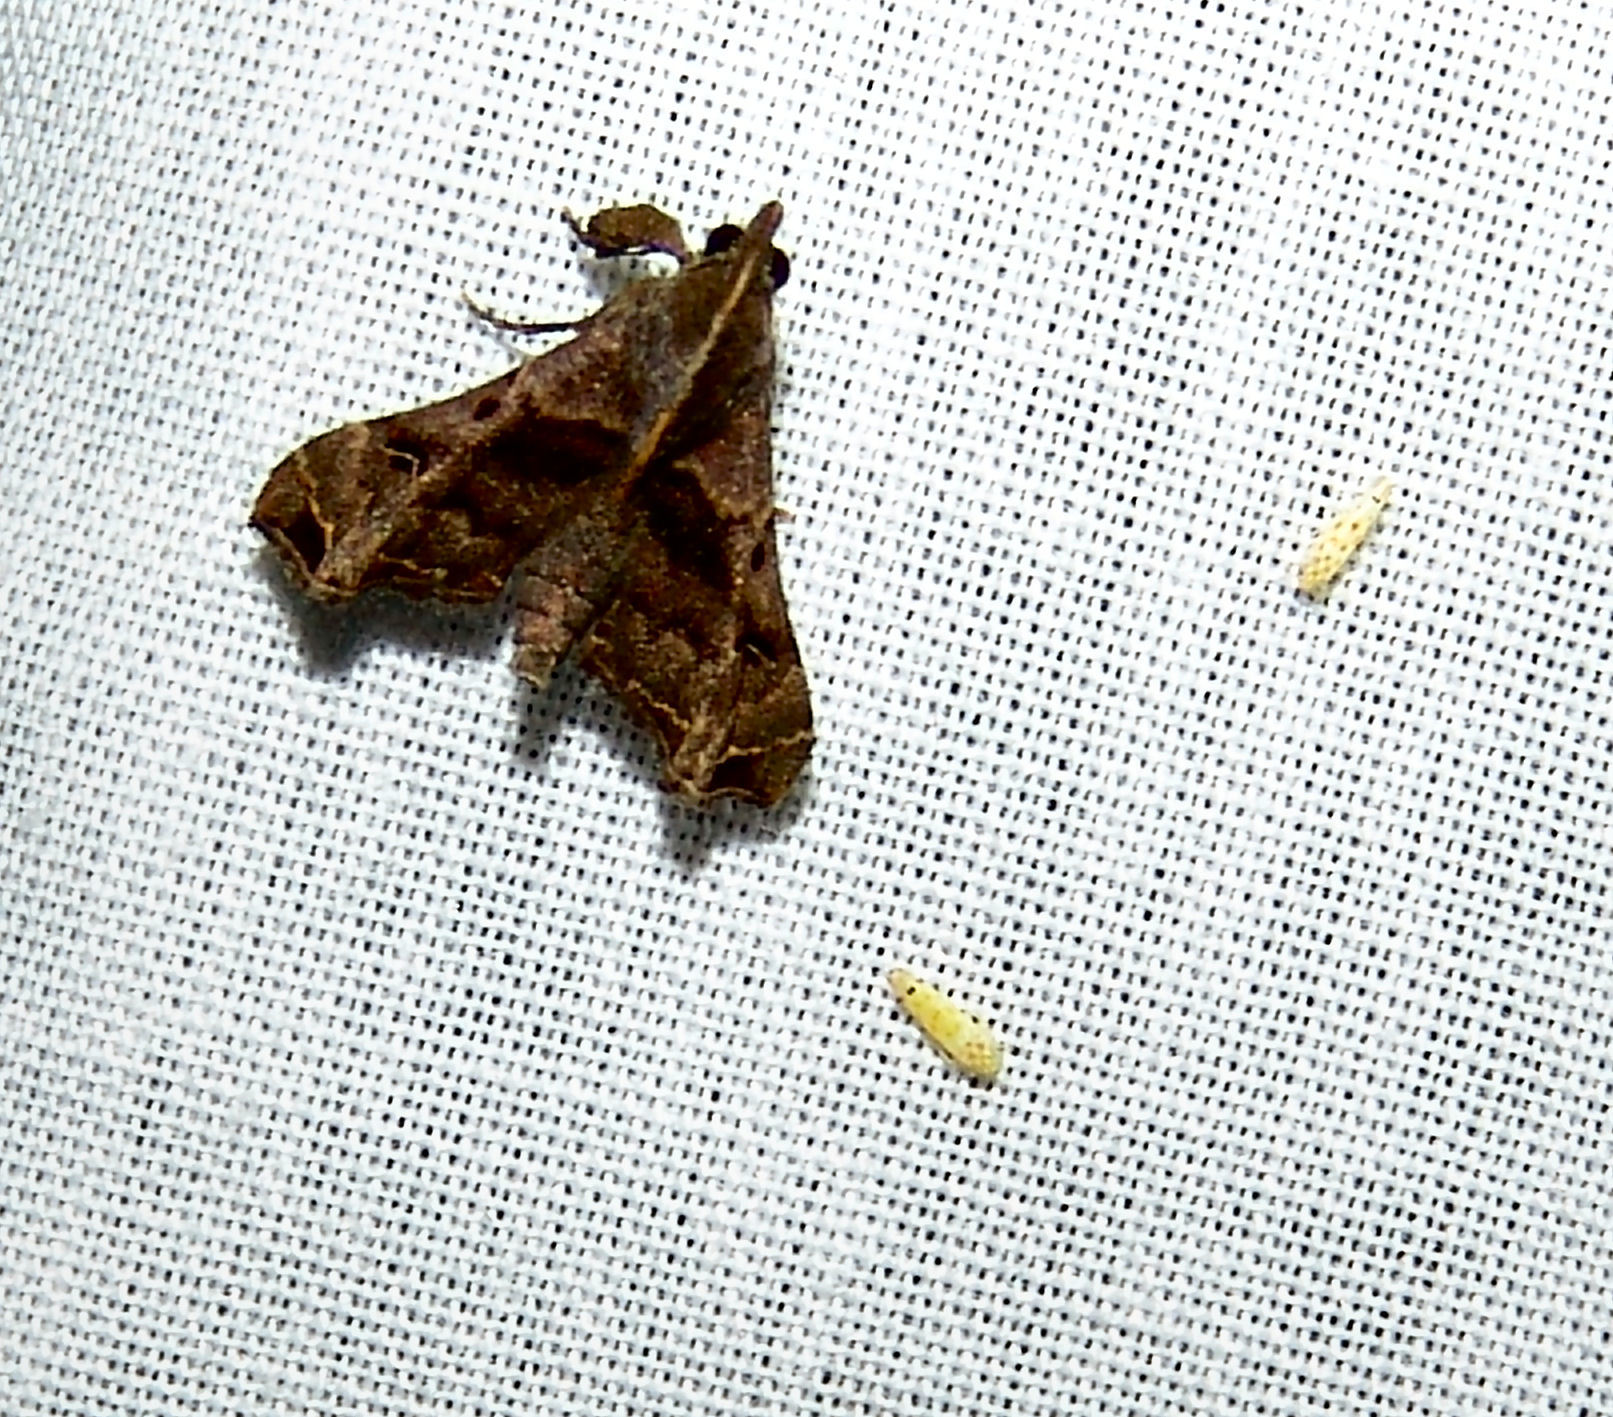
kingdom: Animalia
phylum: Arthropoda
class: Insecta
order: Lepidoptera
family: Erebidae
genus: Palthis
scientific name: Palthis asopialis
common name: Faint-spotted palthis moth
